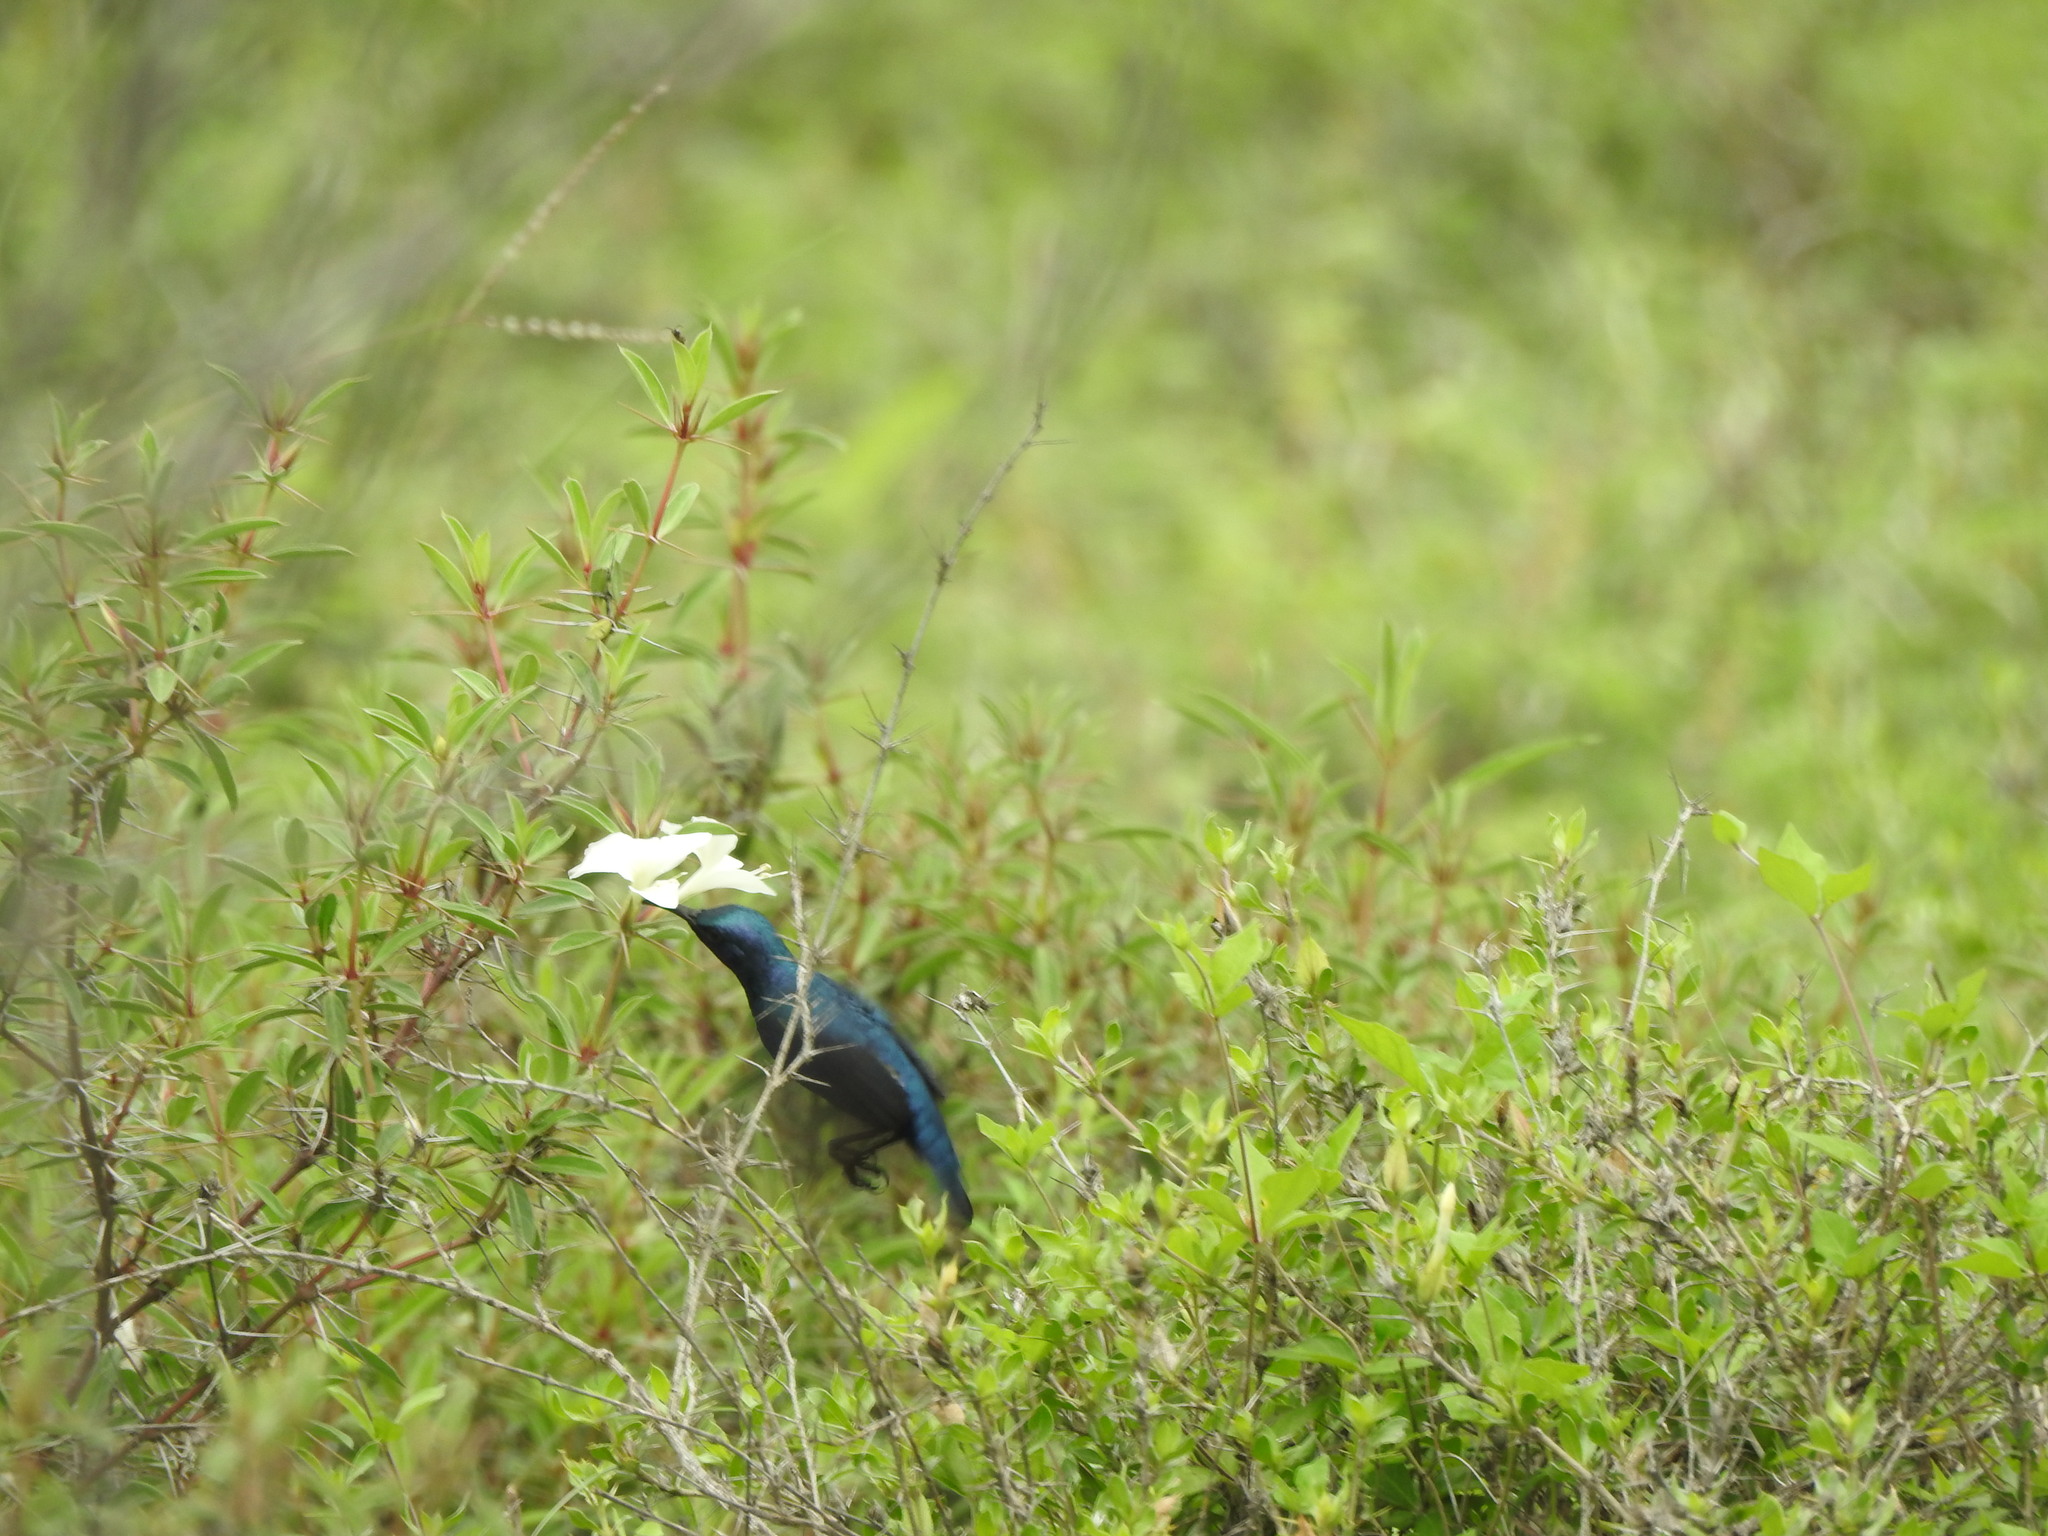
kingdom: Animalia
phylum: Chordata
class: Aves
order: Passeriformes
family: Nectariniidae
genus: Cinnyris
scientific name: Cinnyris asiaticus
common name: Purple sunbird
